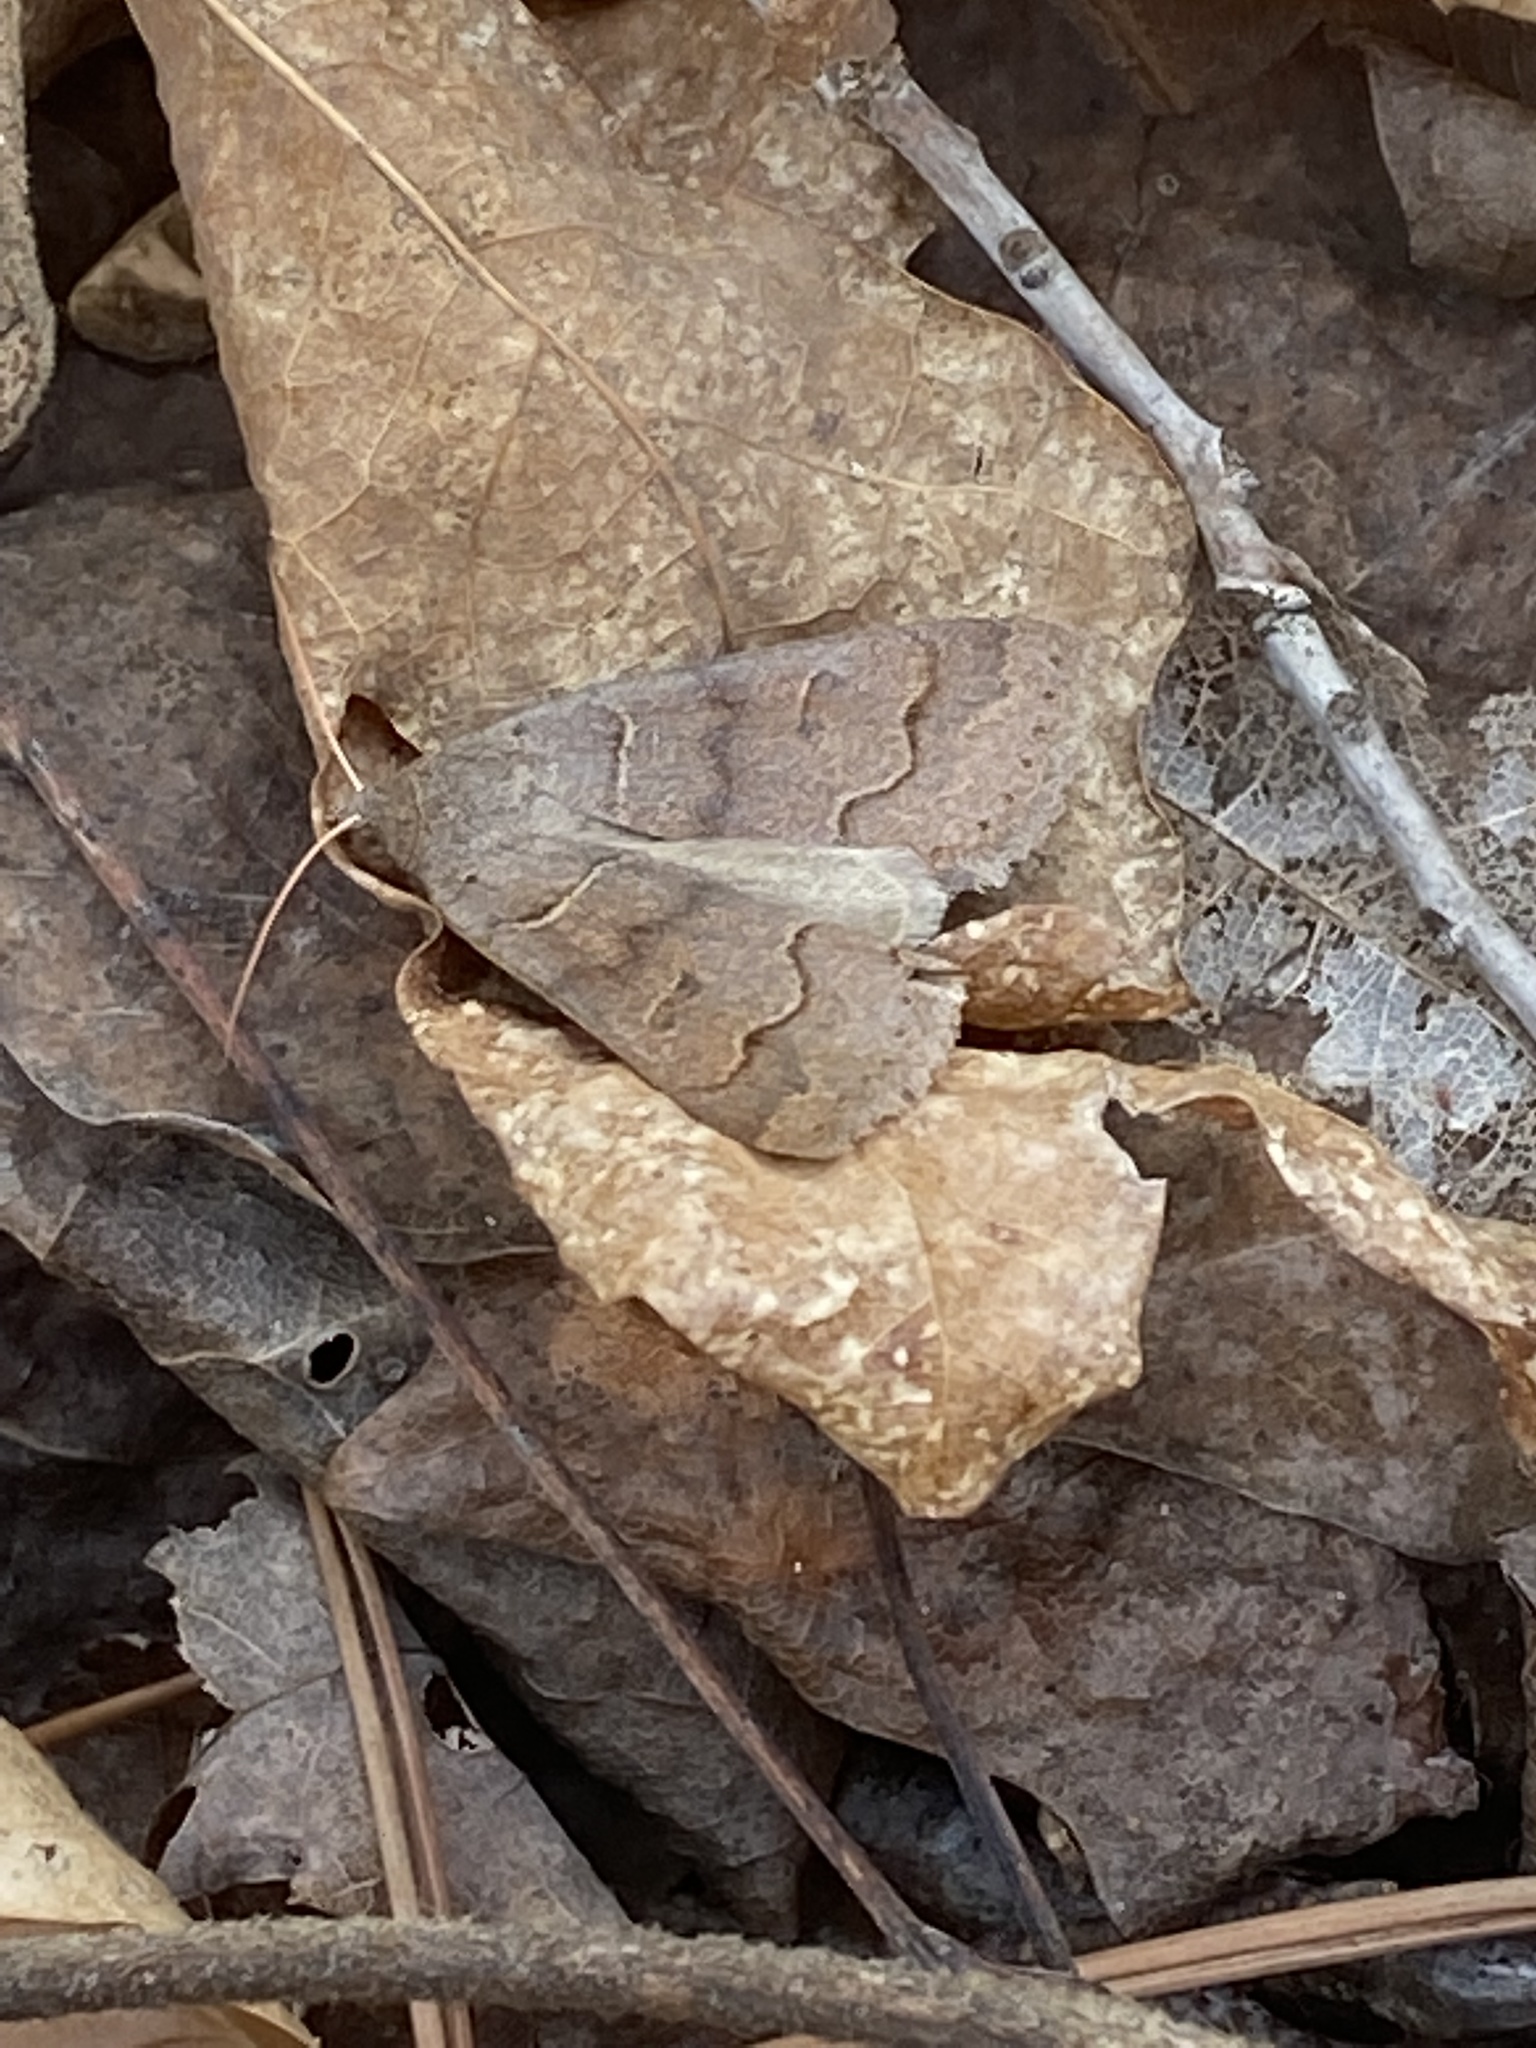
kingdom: Animalia
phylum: Arthropoda
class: Insecta
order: Lepidoptera
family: Erebidae
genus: Phoberia
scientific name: Phoberia atomaris
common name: Common oak moth
